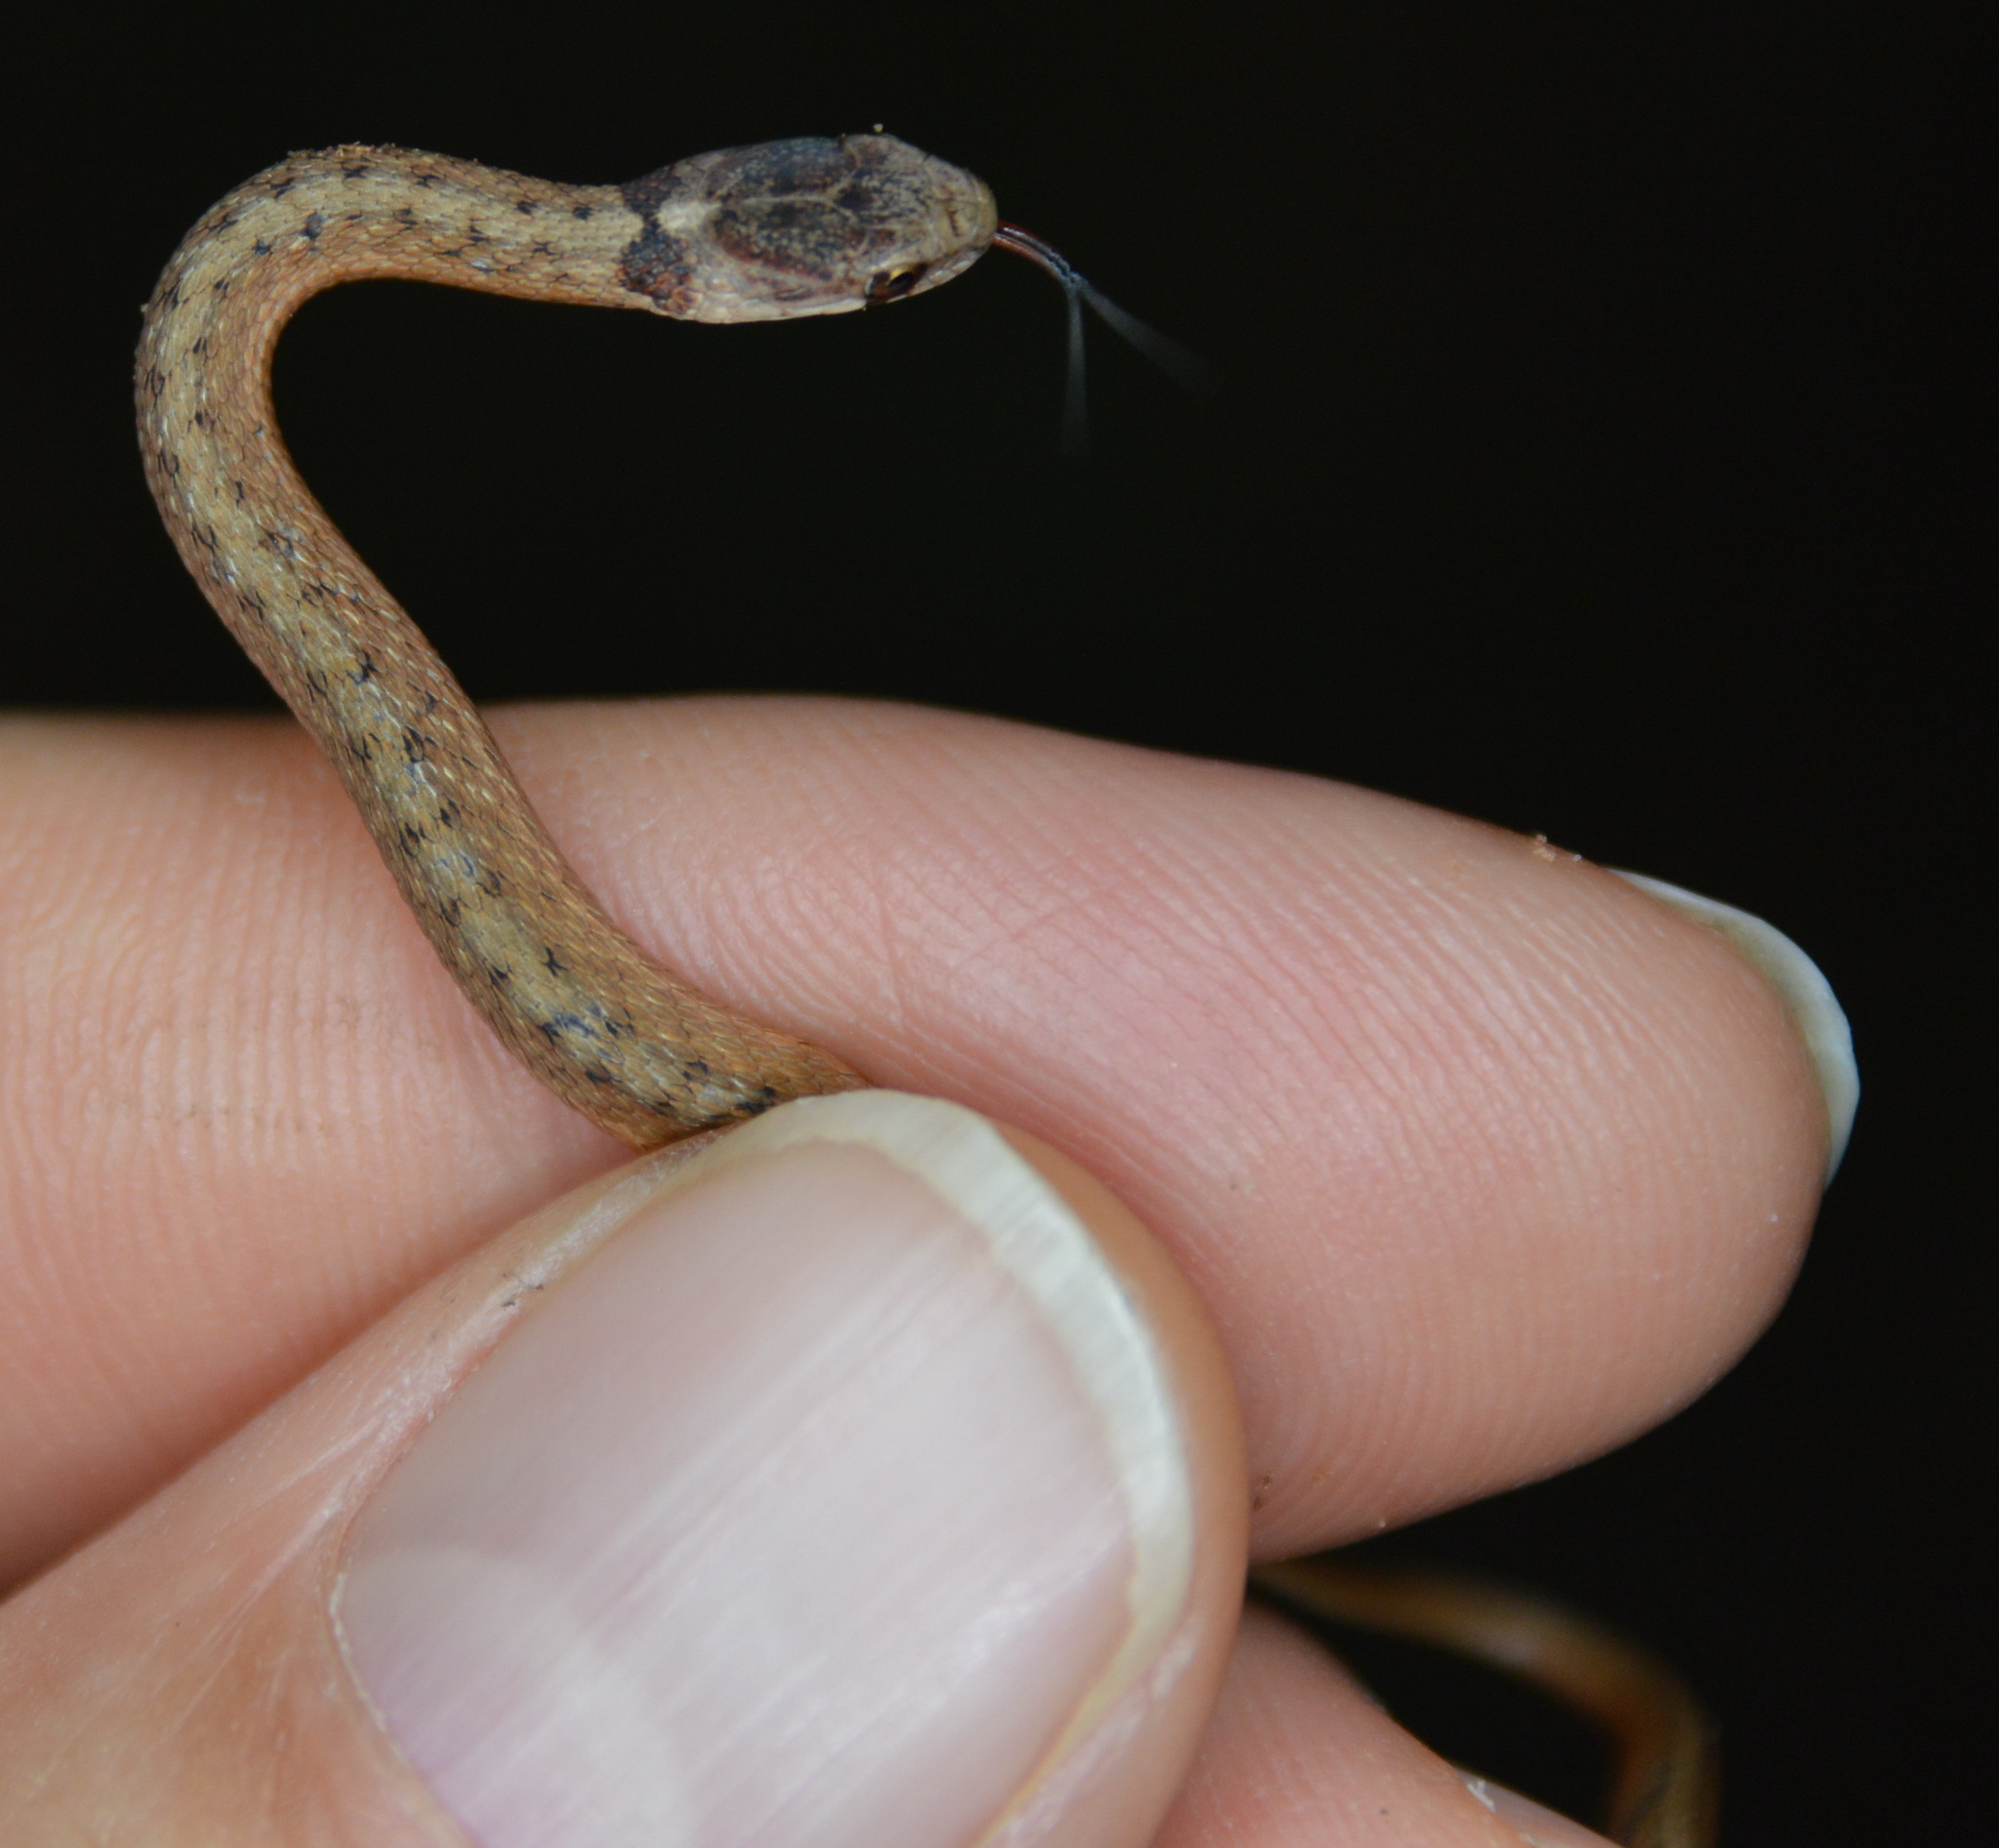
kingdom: Animalia
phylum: Chordata
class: Squamata
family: Colubridae
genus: Storeria
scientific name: Storeria dekayi
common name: (dekay’s) brown snake
